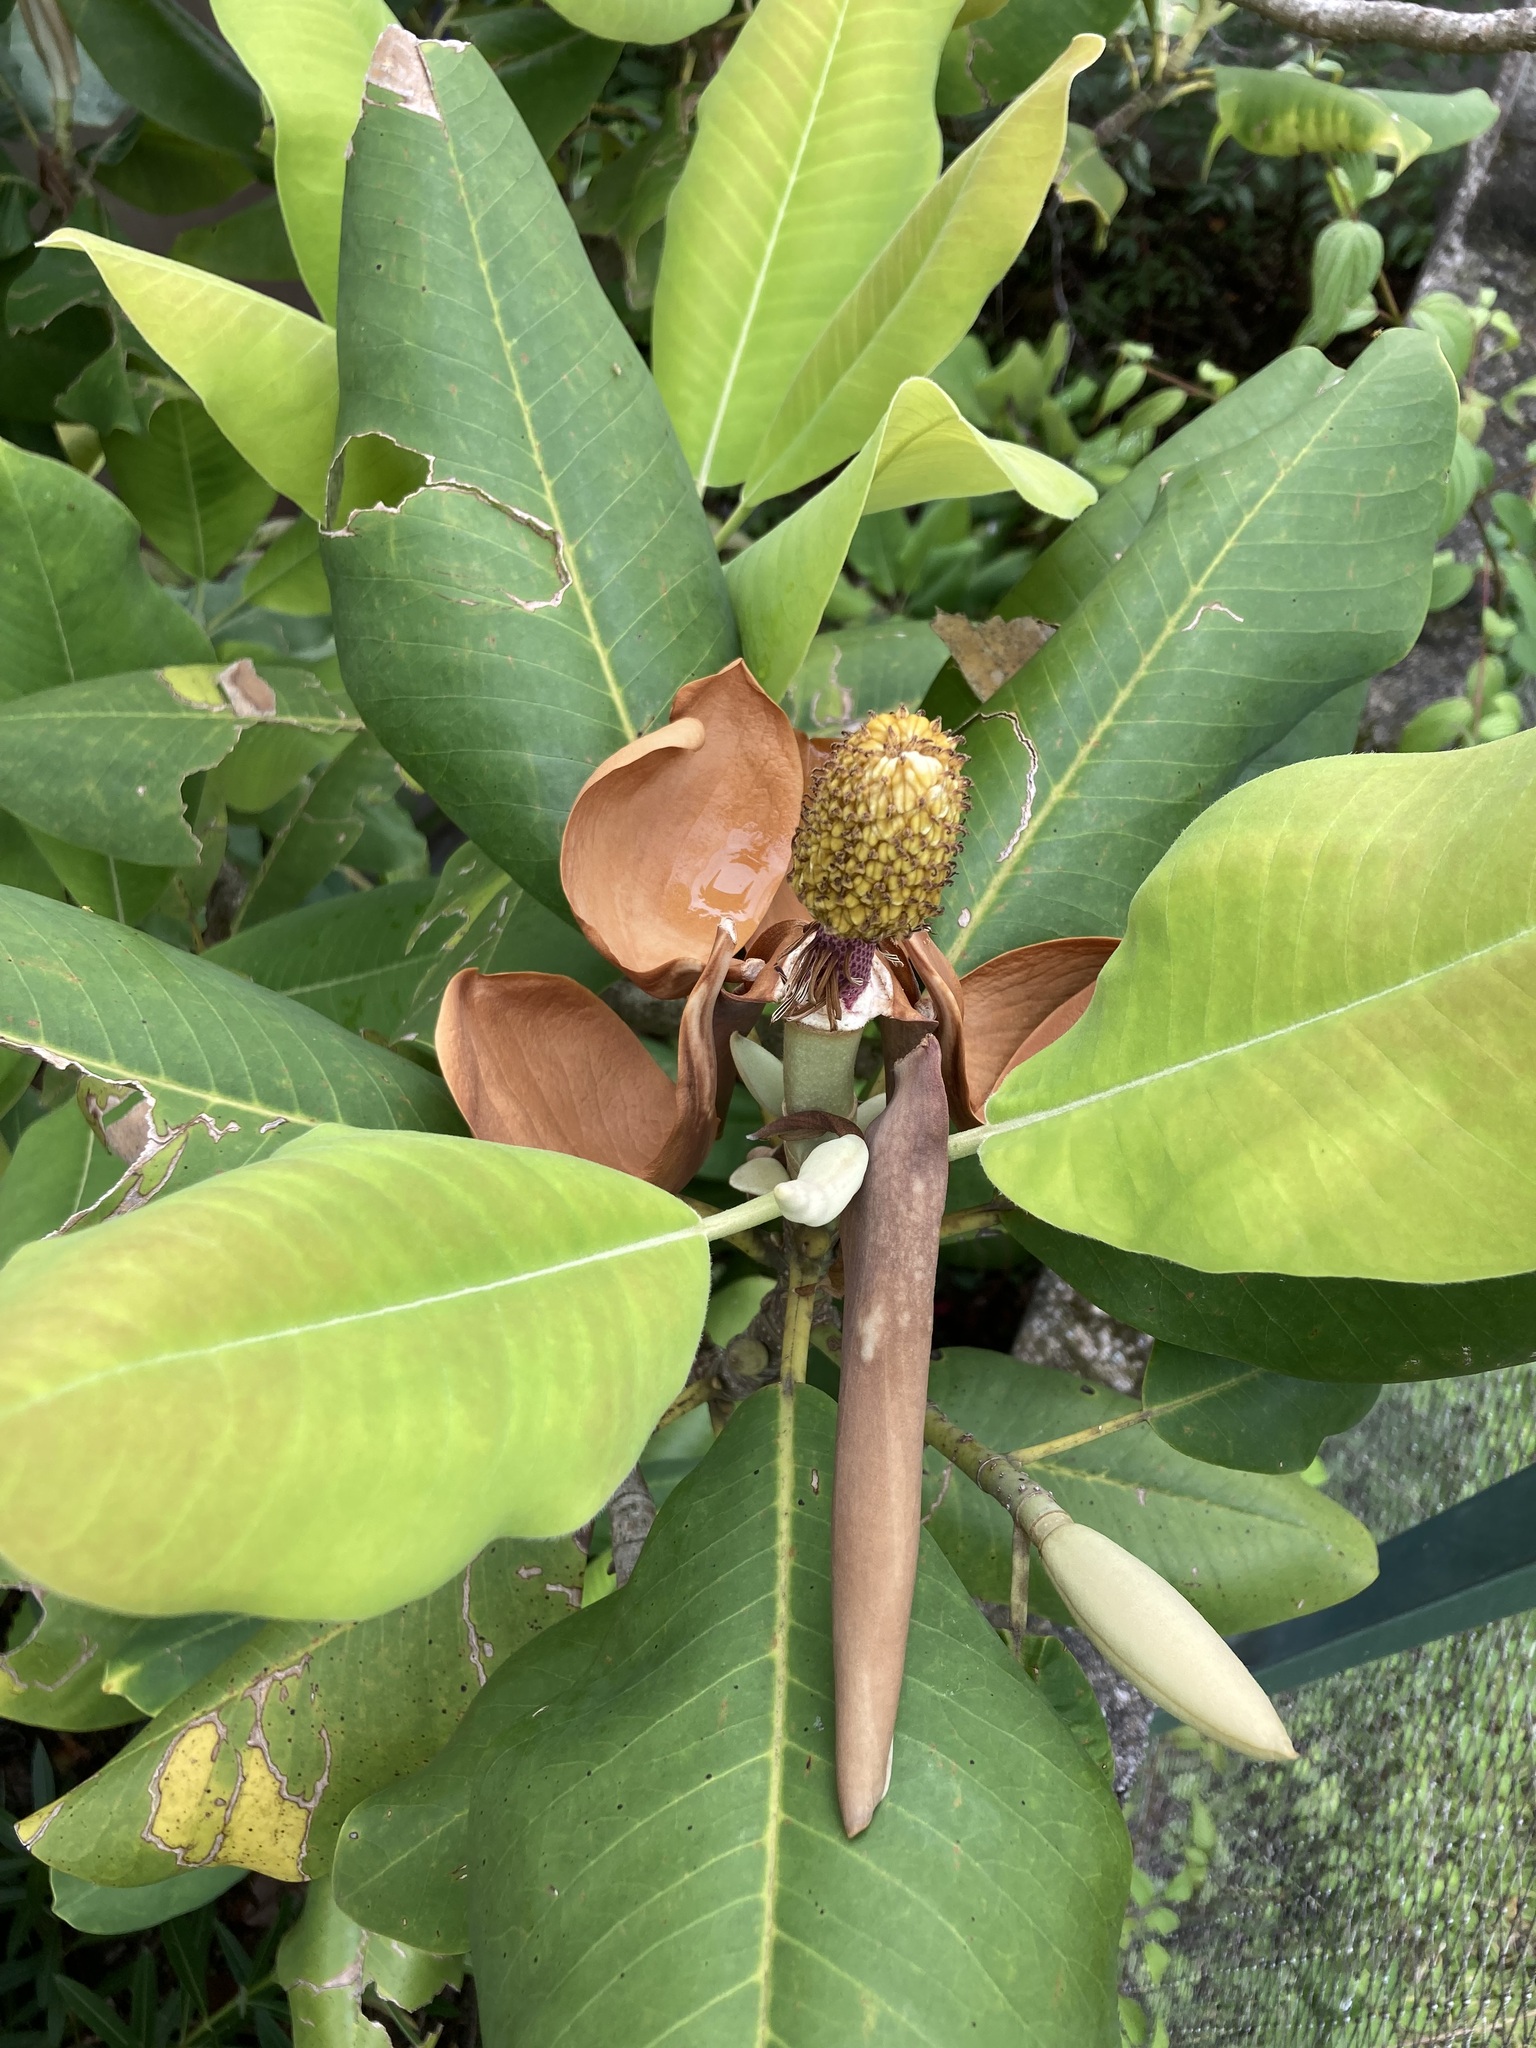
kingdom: Plantae
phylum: Tracheophyta
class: Magnoliopsida
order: Magnoliales
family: Magnoliaceae
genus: Magnolia
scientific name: Magnolia sharpii
